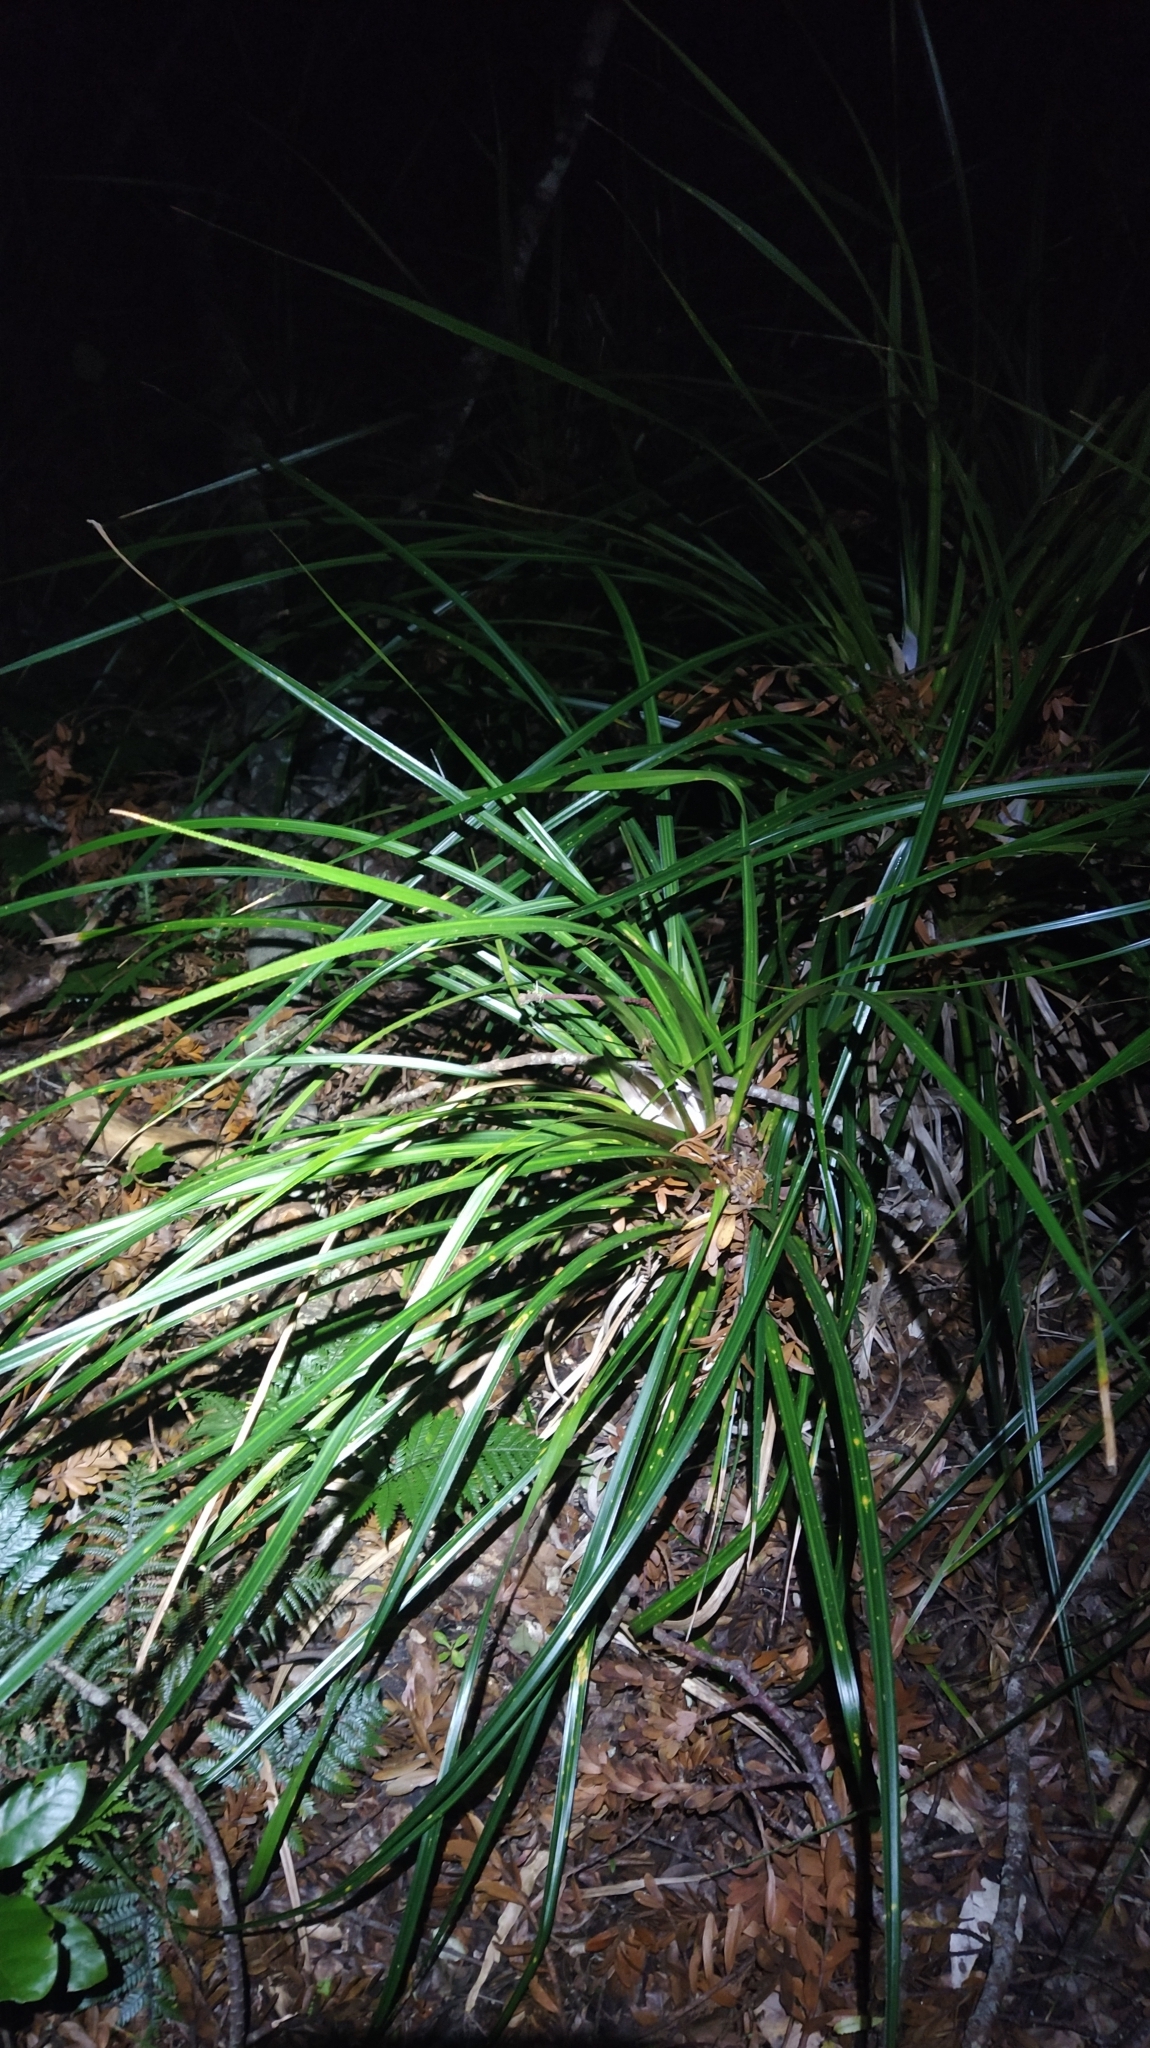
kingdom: Plantae
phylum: Tracheophyta
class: Liliopsida
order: Pandanales
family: Pandanaceae
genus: Freycinetia
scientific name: Freycinetia banksii
